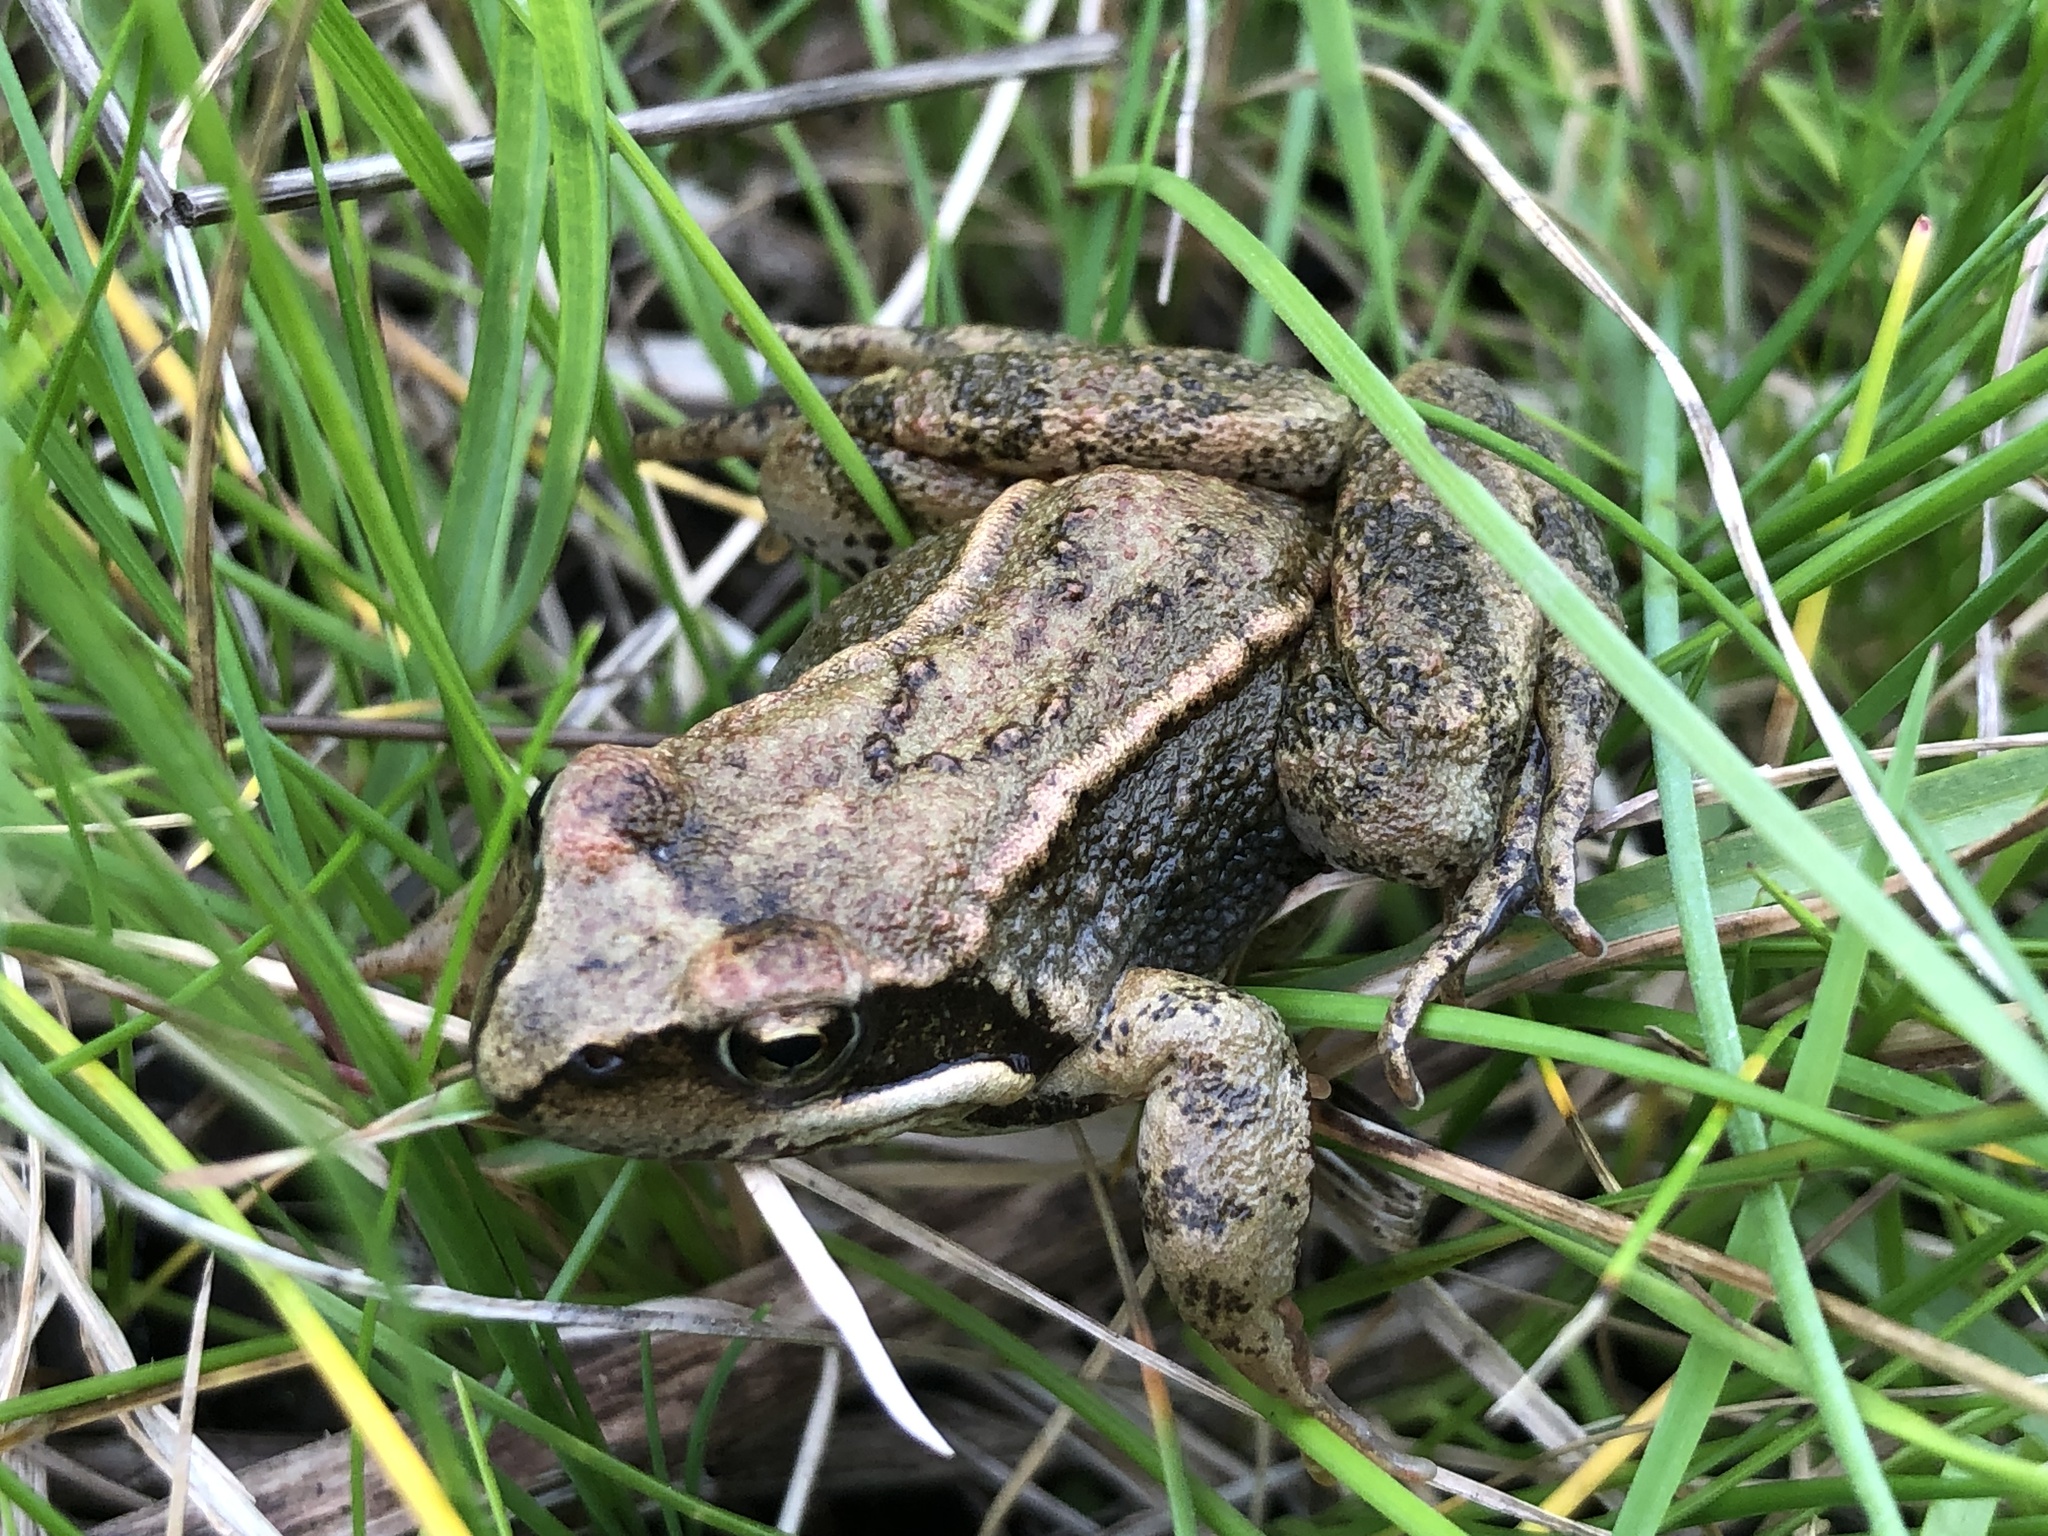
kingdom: Animalia
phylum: Chordata
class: Amphibia
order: Anura
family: Ranidae
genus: Rana
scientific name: Rana temporaria
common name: Common frog
